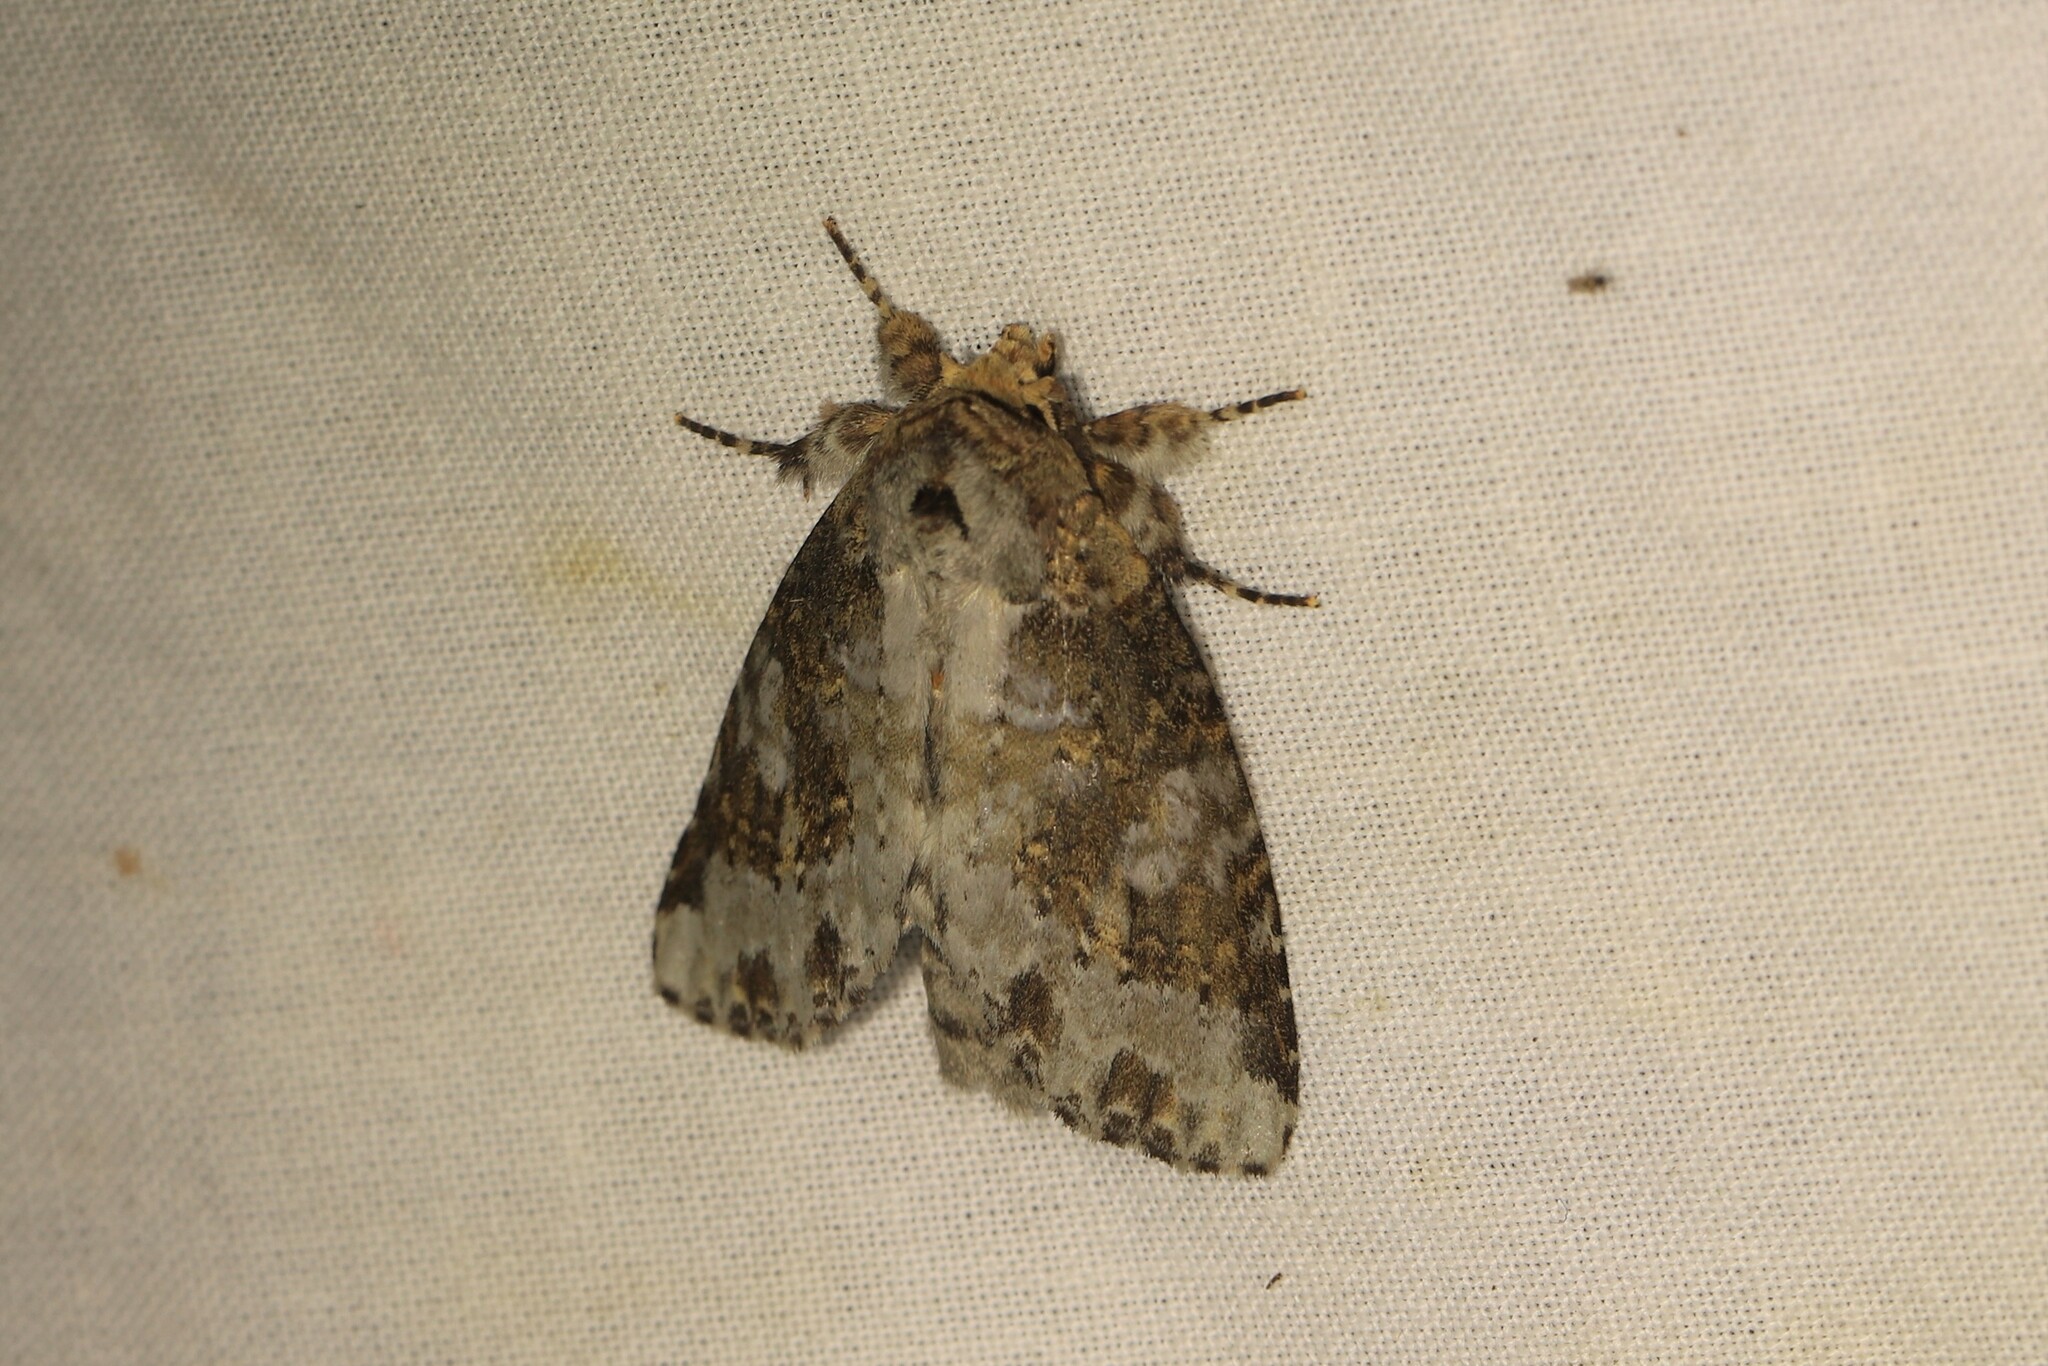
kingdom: Animalia
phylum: Arthropoda
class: Insecta
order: Lepidoptera
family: Notodontidae
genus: Disphragis
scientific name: Disphragis tharis
